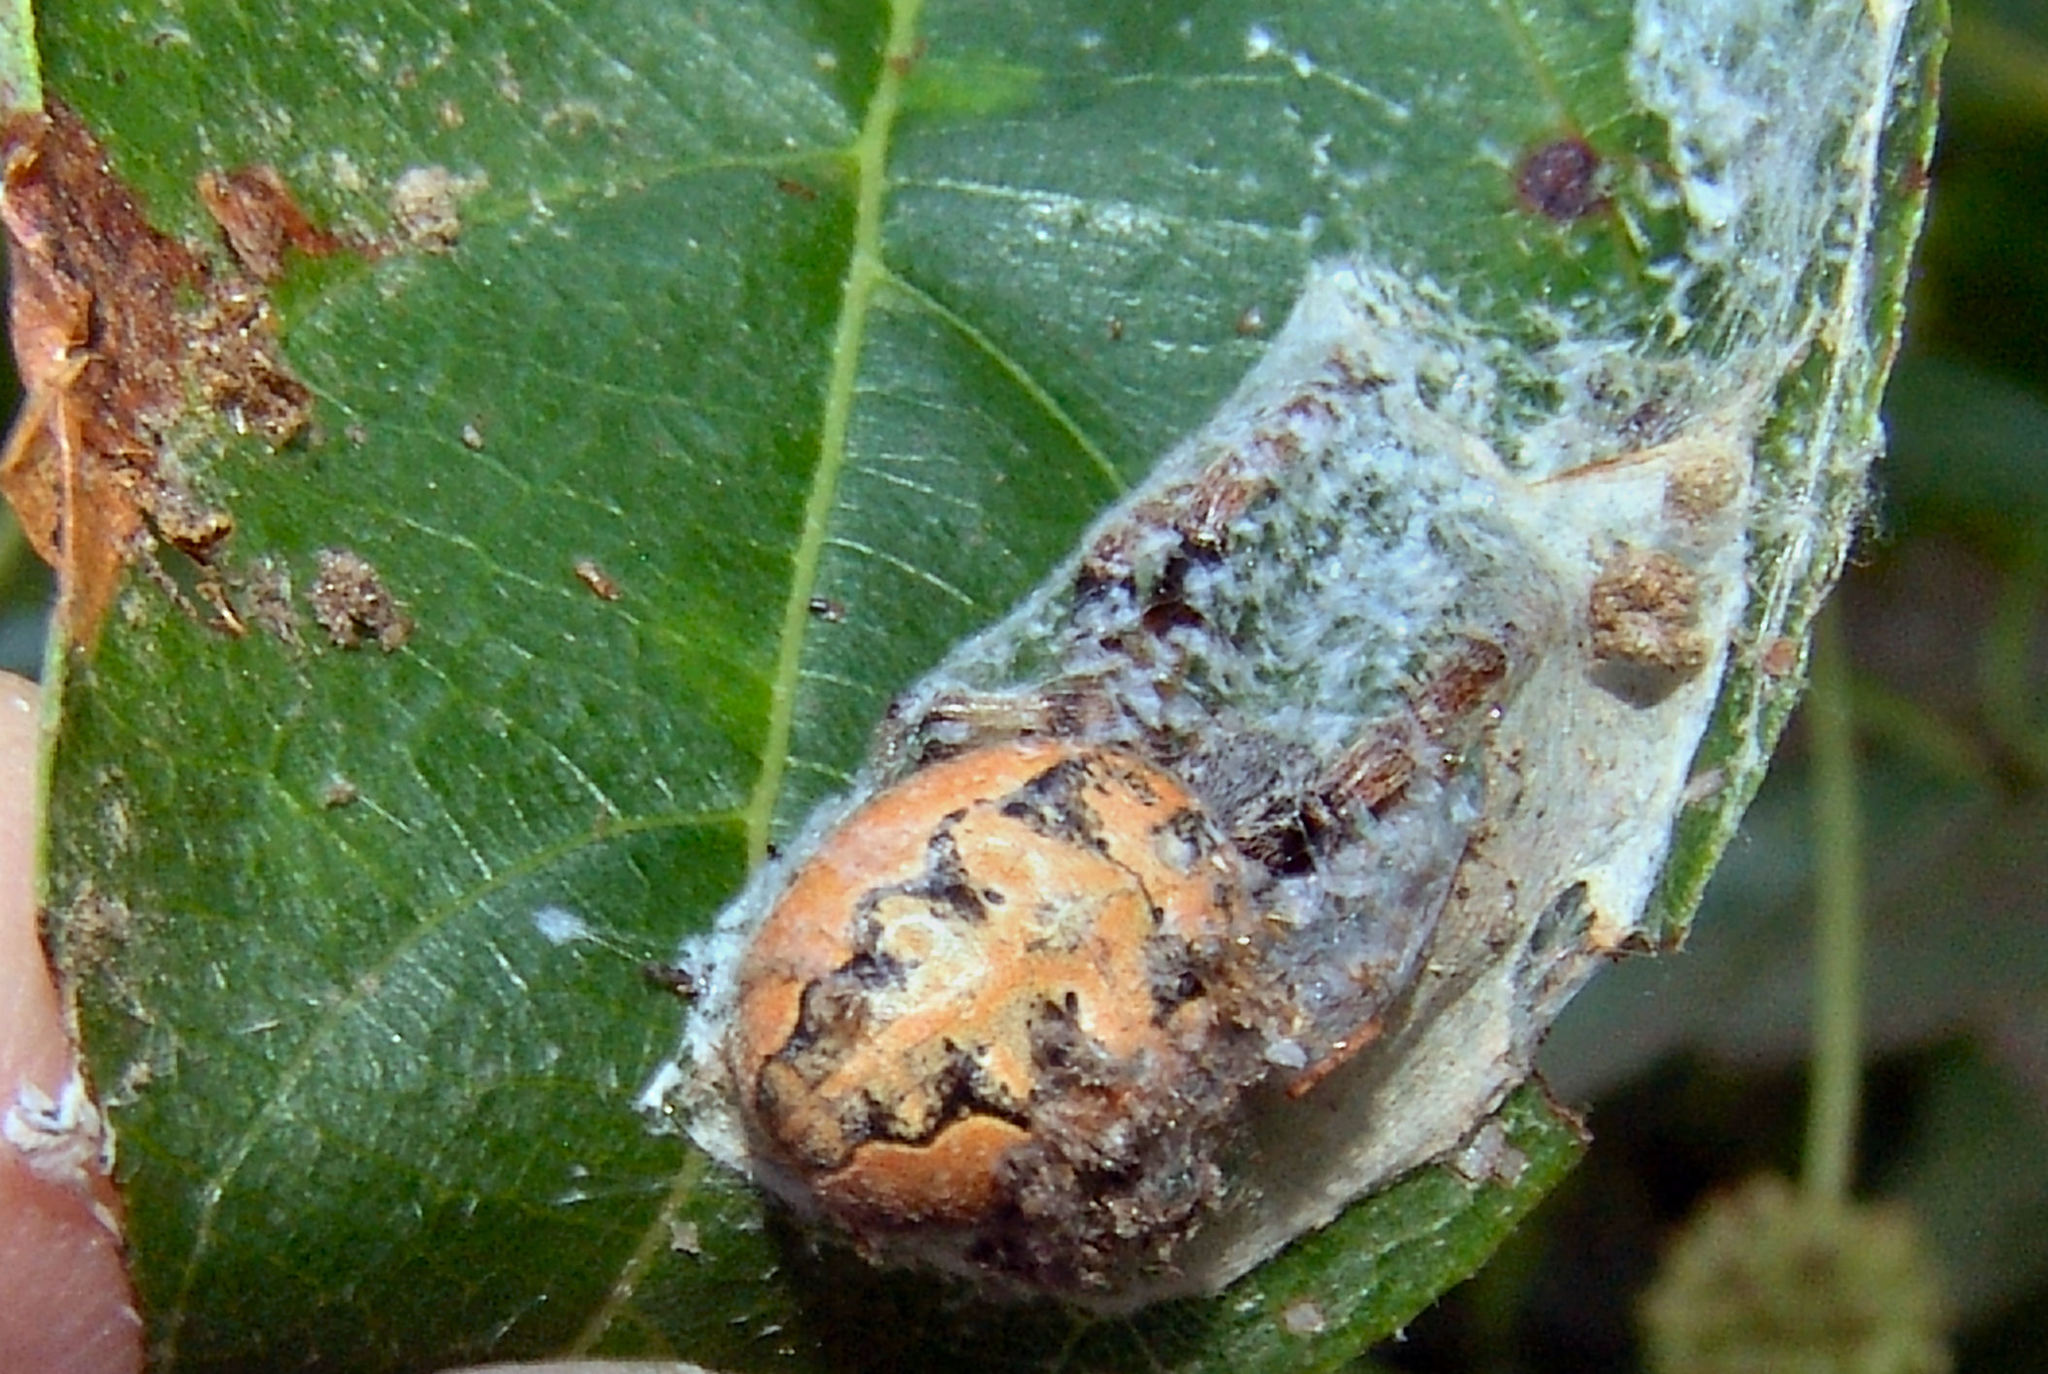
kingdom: Animalia
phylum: Arthropoda
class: Arachnida
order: Araneae
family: Araneidae
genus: Larinioides
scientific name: Larinioides cornutus
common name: Furrow orbweaver
